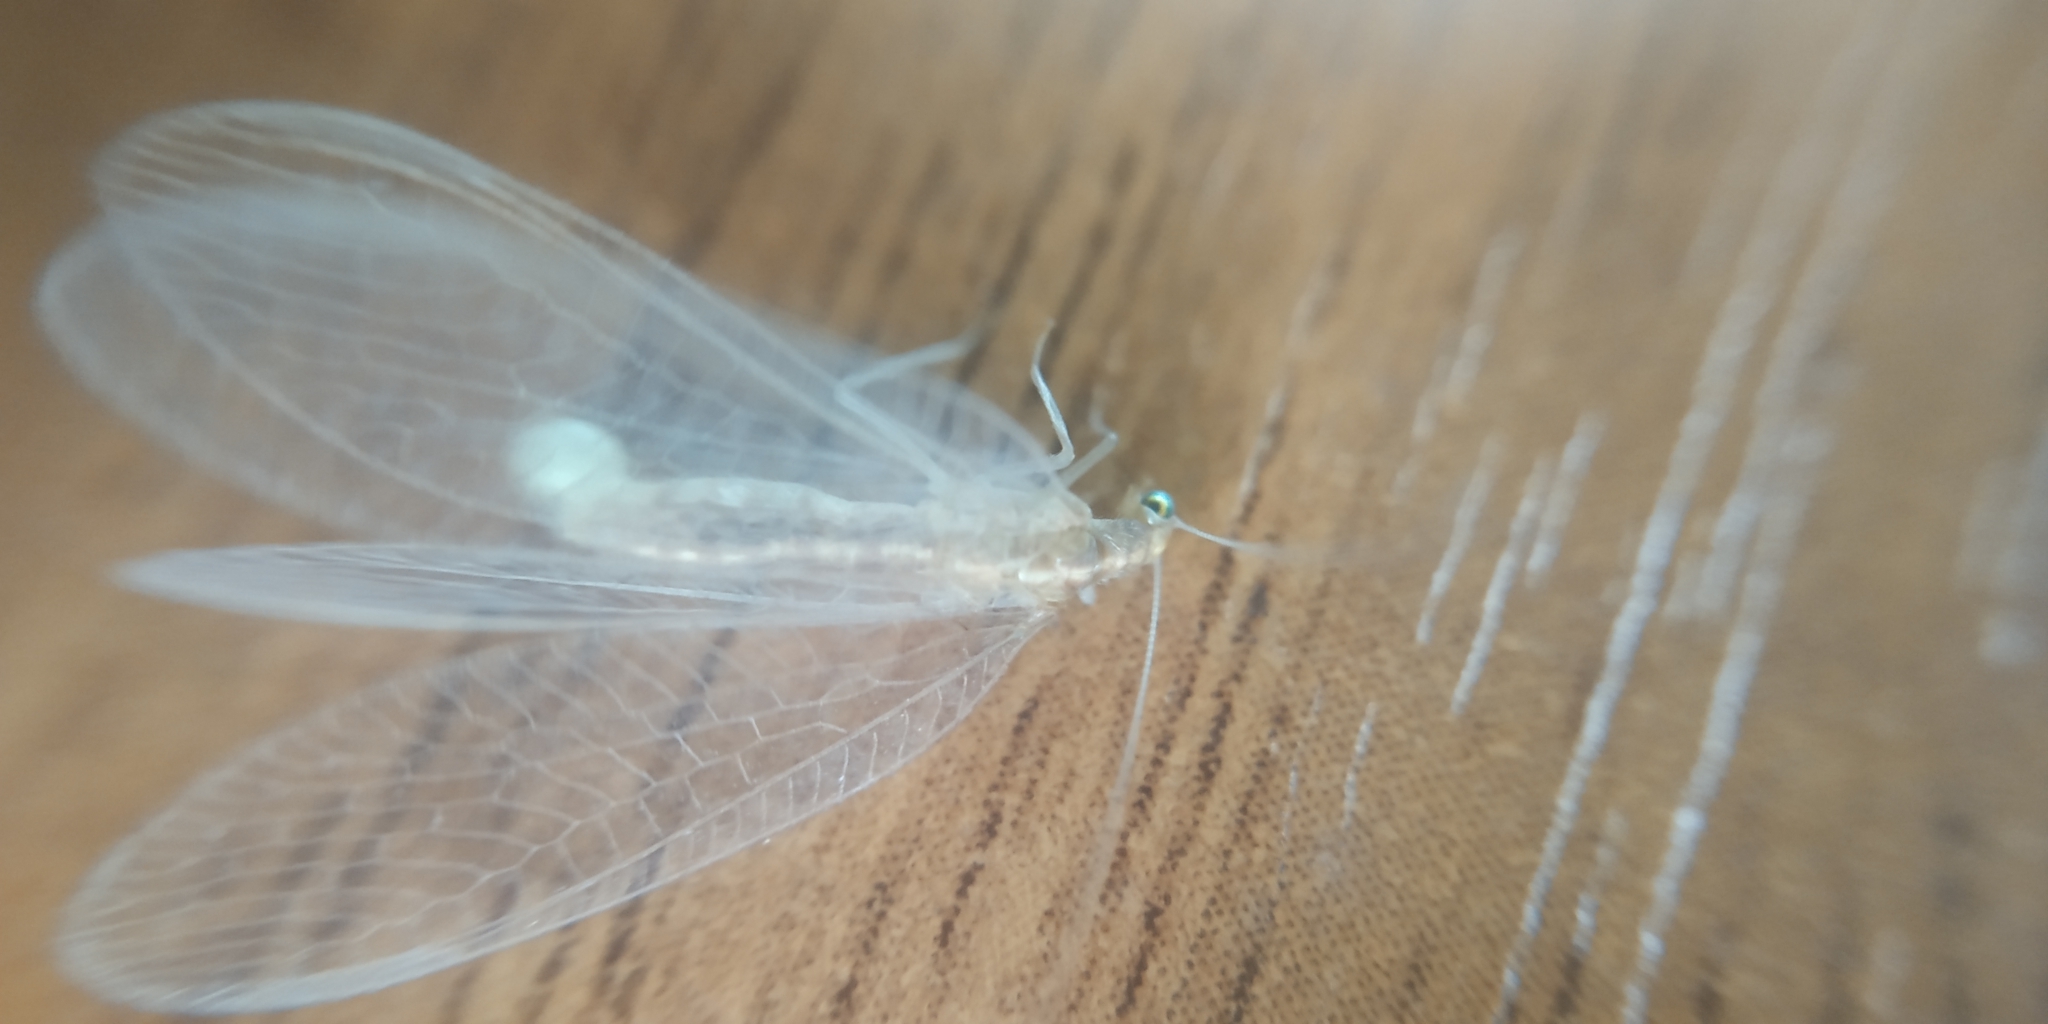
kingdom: Animalia
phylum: Arthropoda
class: Insecta
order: Neuroptera
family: Chrysopidae
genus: Chrysoperla
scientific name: Chrysoperla
